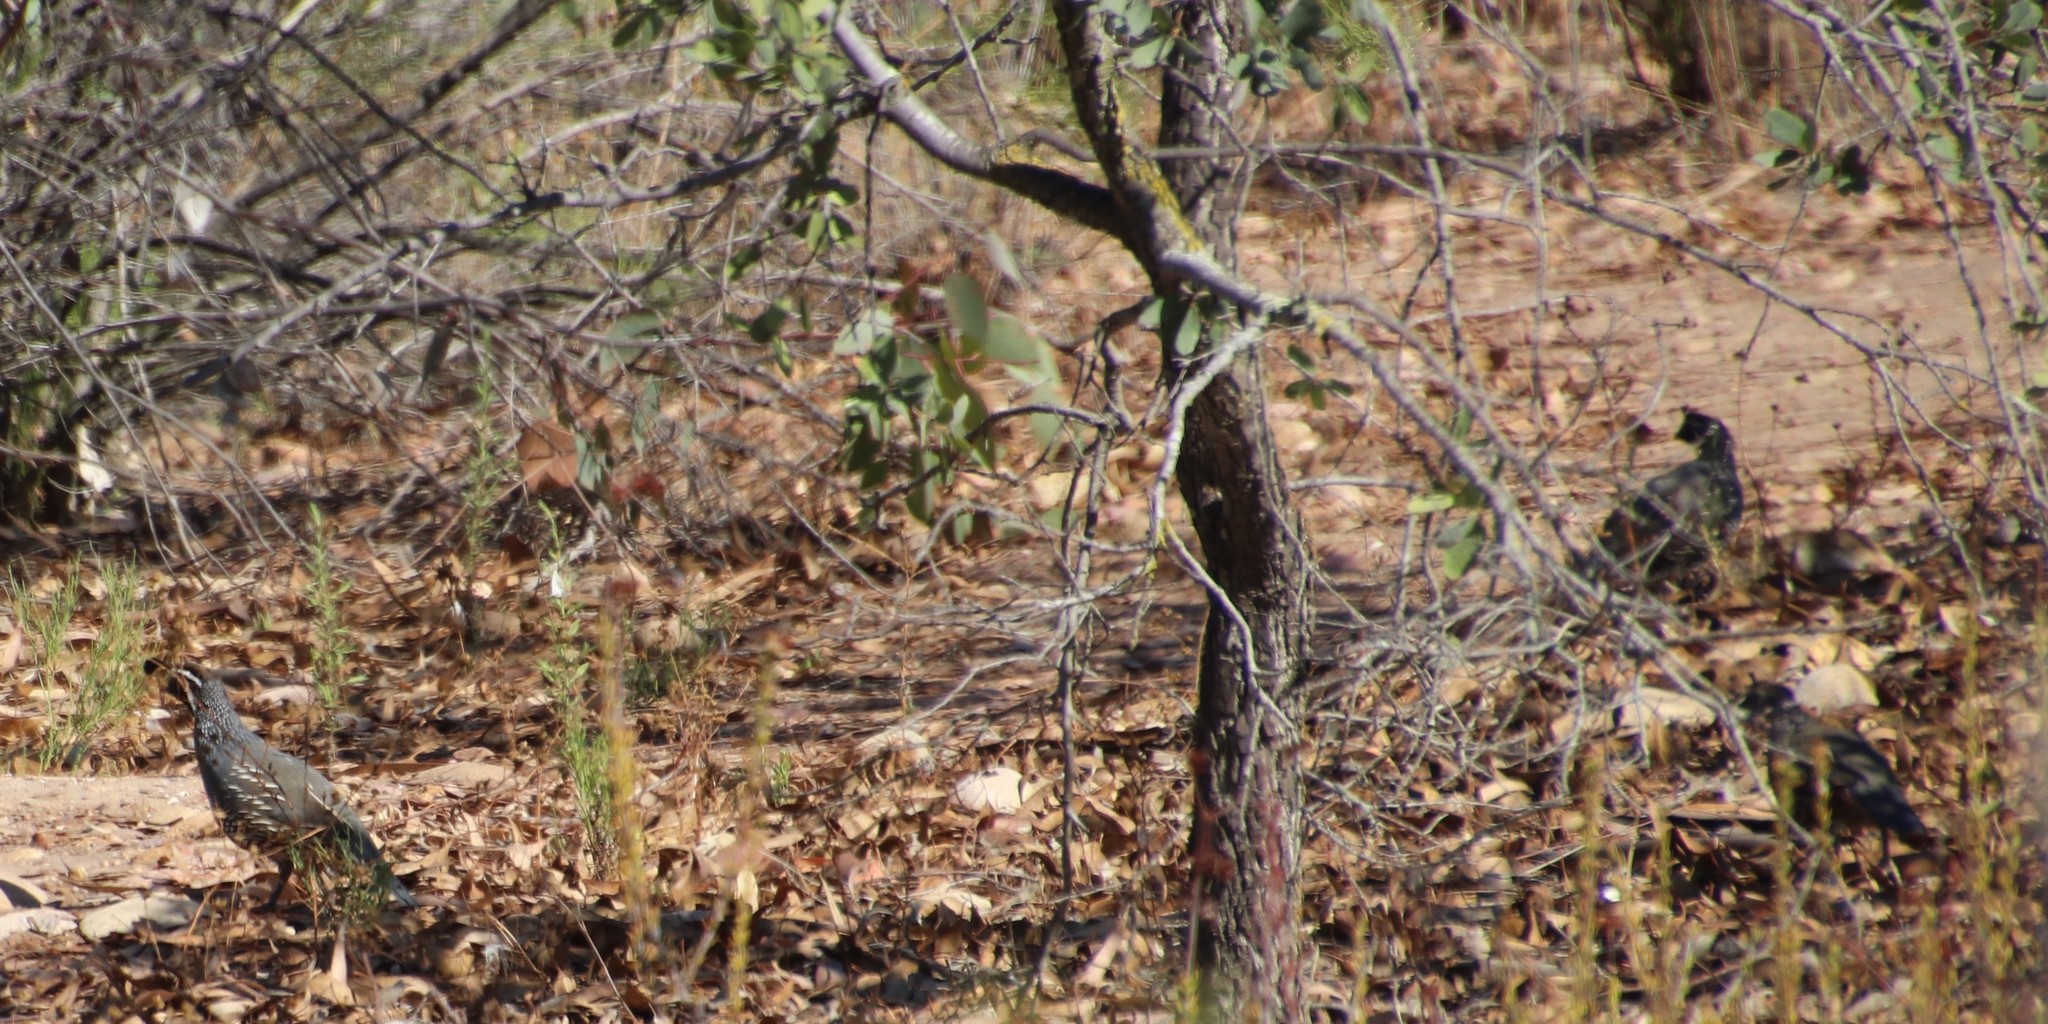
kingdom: Animalia
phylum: Chordata
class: Aves
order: Galliformes
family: Odontophoridae
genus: Callipepla
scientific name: Callipepla californica
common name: California quail
